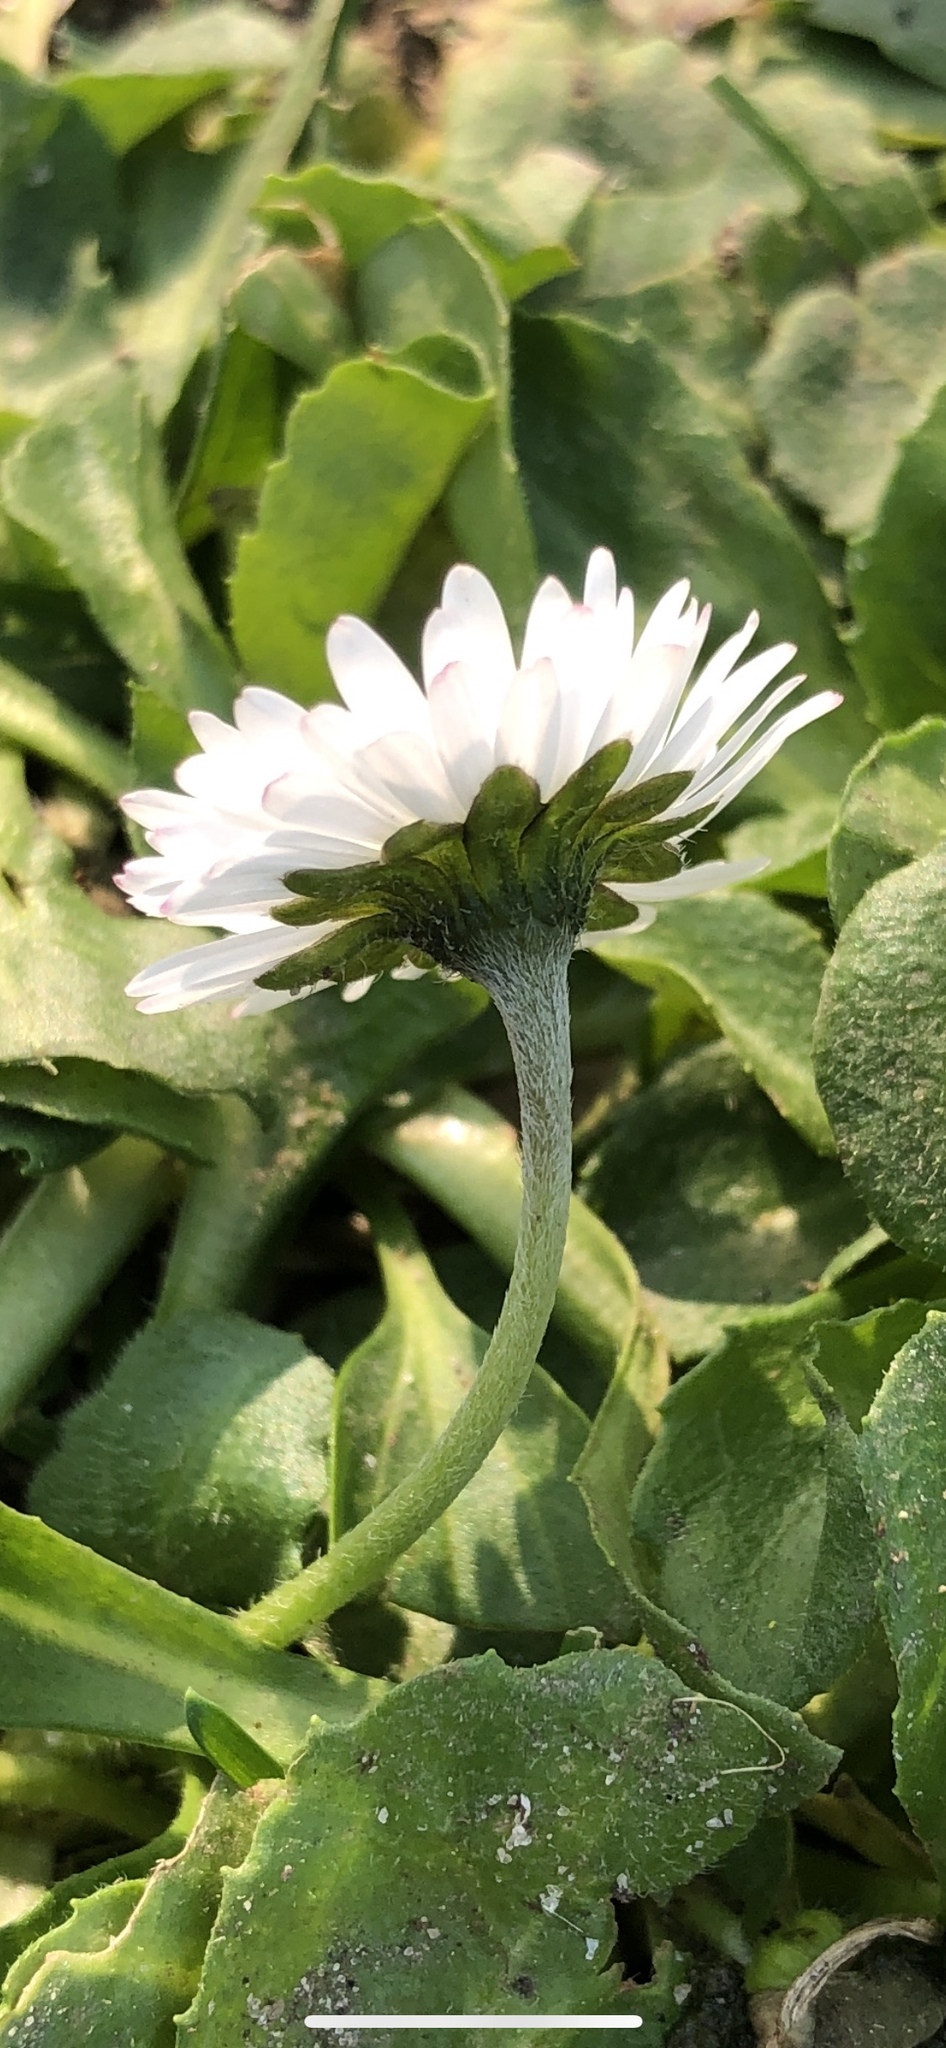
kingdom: Plantae
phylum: Tracheophyta
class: Magnoliopsida
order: Asterales
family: Asteraceae
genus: Bellis
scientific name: Bellis perennis
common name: Lawndaisy
